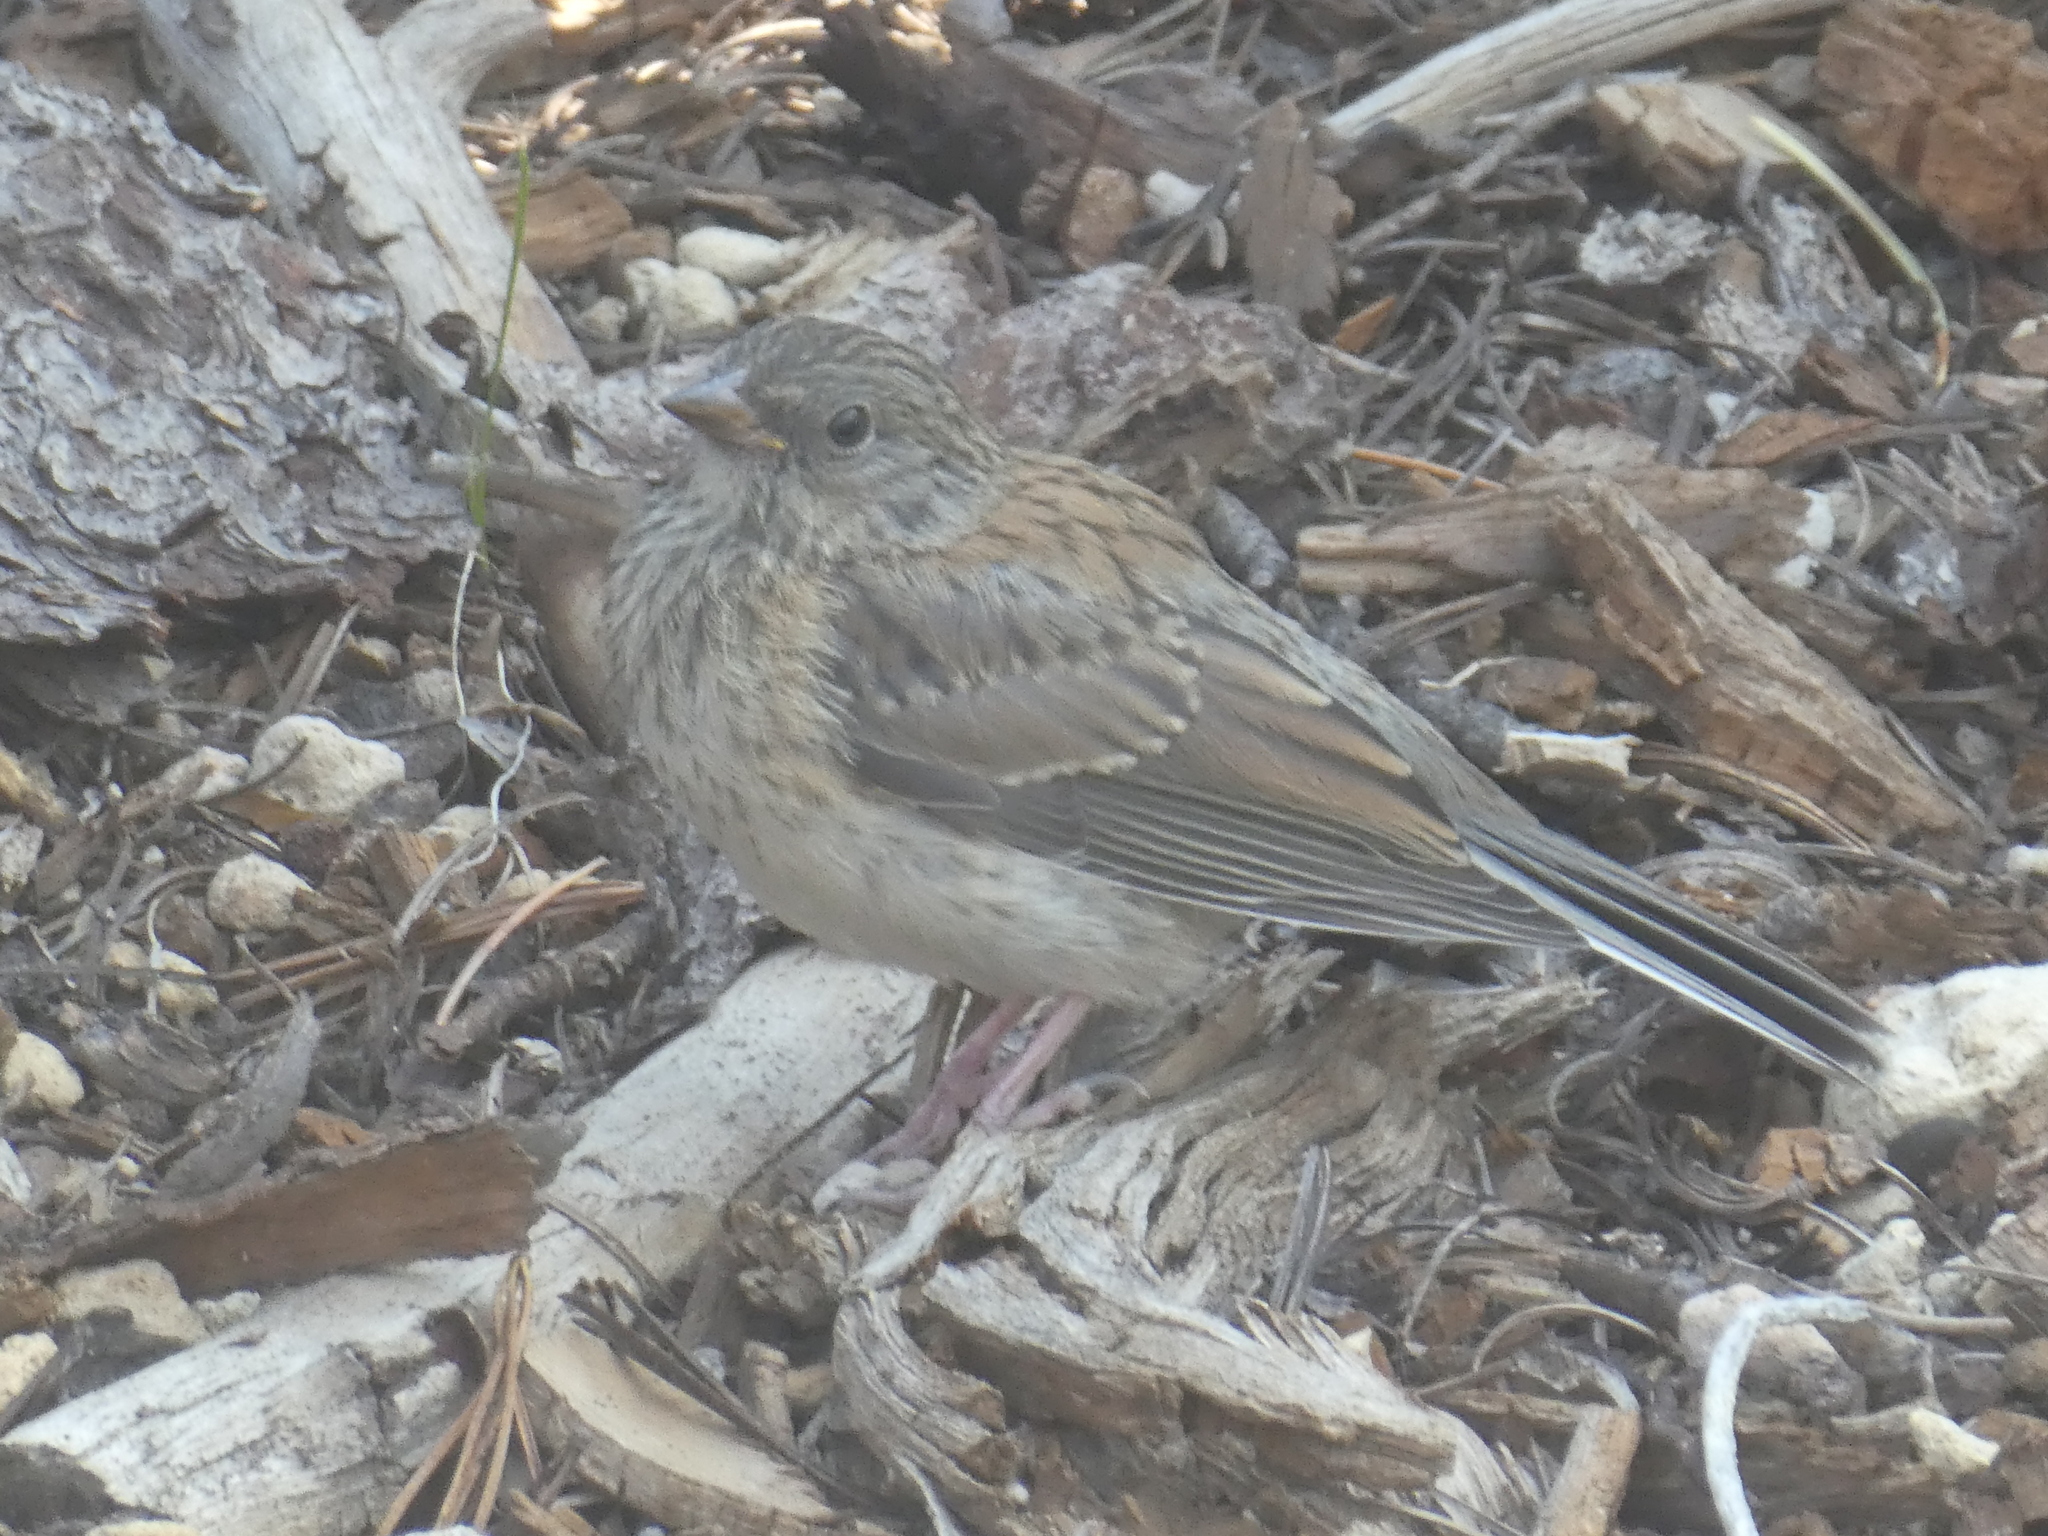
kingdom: Animalia
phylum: Chordata
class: Aves
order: Passeriformes
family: Passerellidae
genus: Junco
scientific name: Junco hyemalis
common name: Dark-eyed junco
